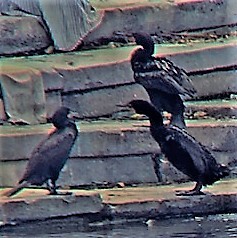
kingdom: Animalia
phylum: Chordata
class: Aves
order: Suliformes
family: Phalacrocoracidae
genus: Phalacrocorax
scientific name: Phalacrocorax auritus
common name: Double-crested cormorant
